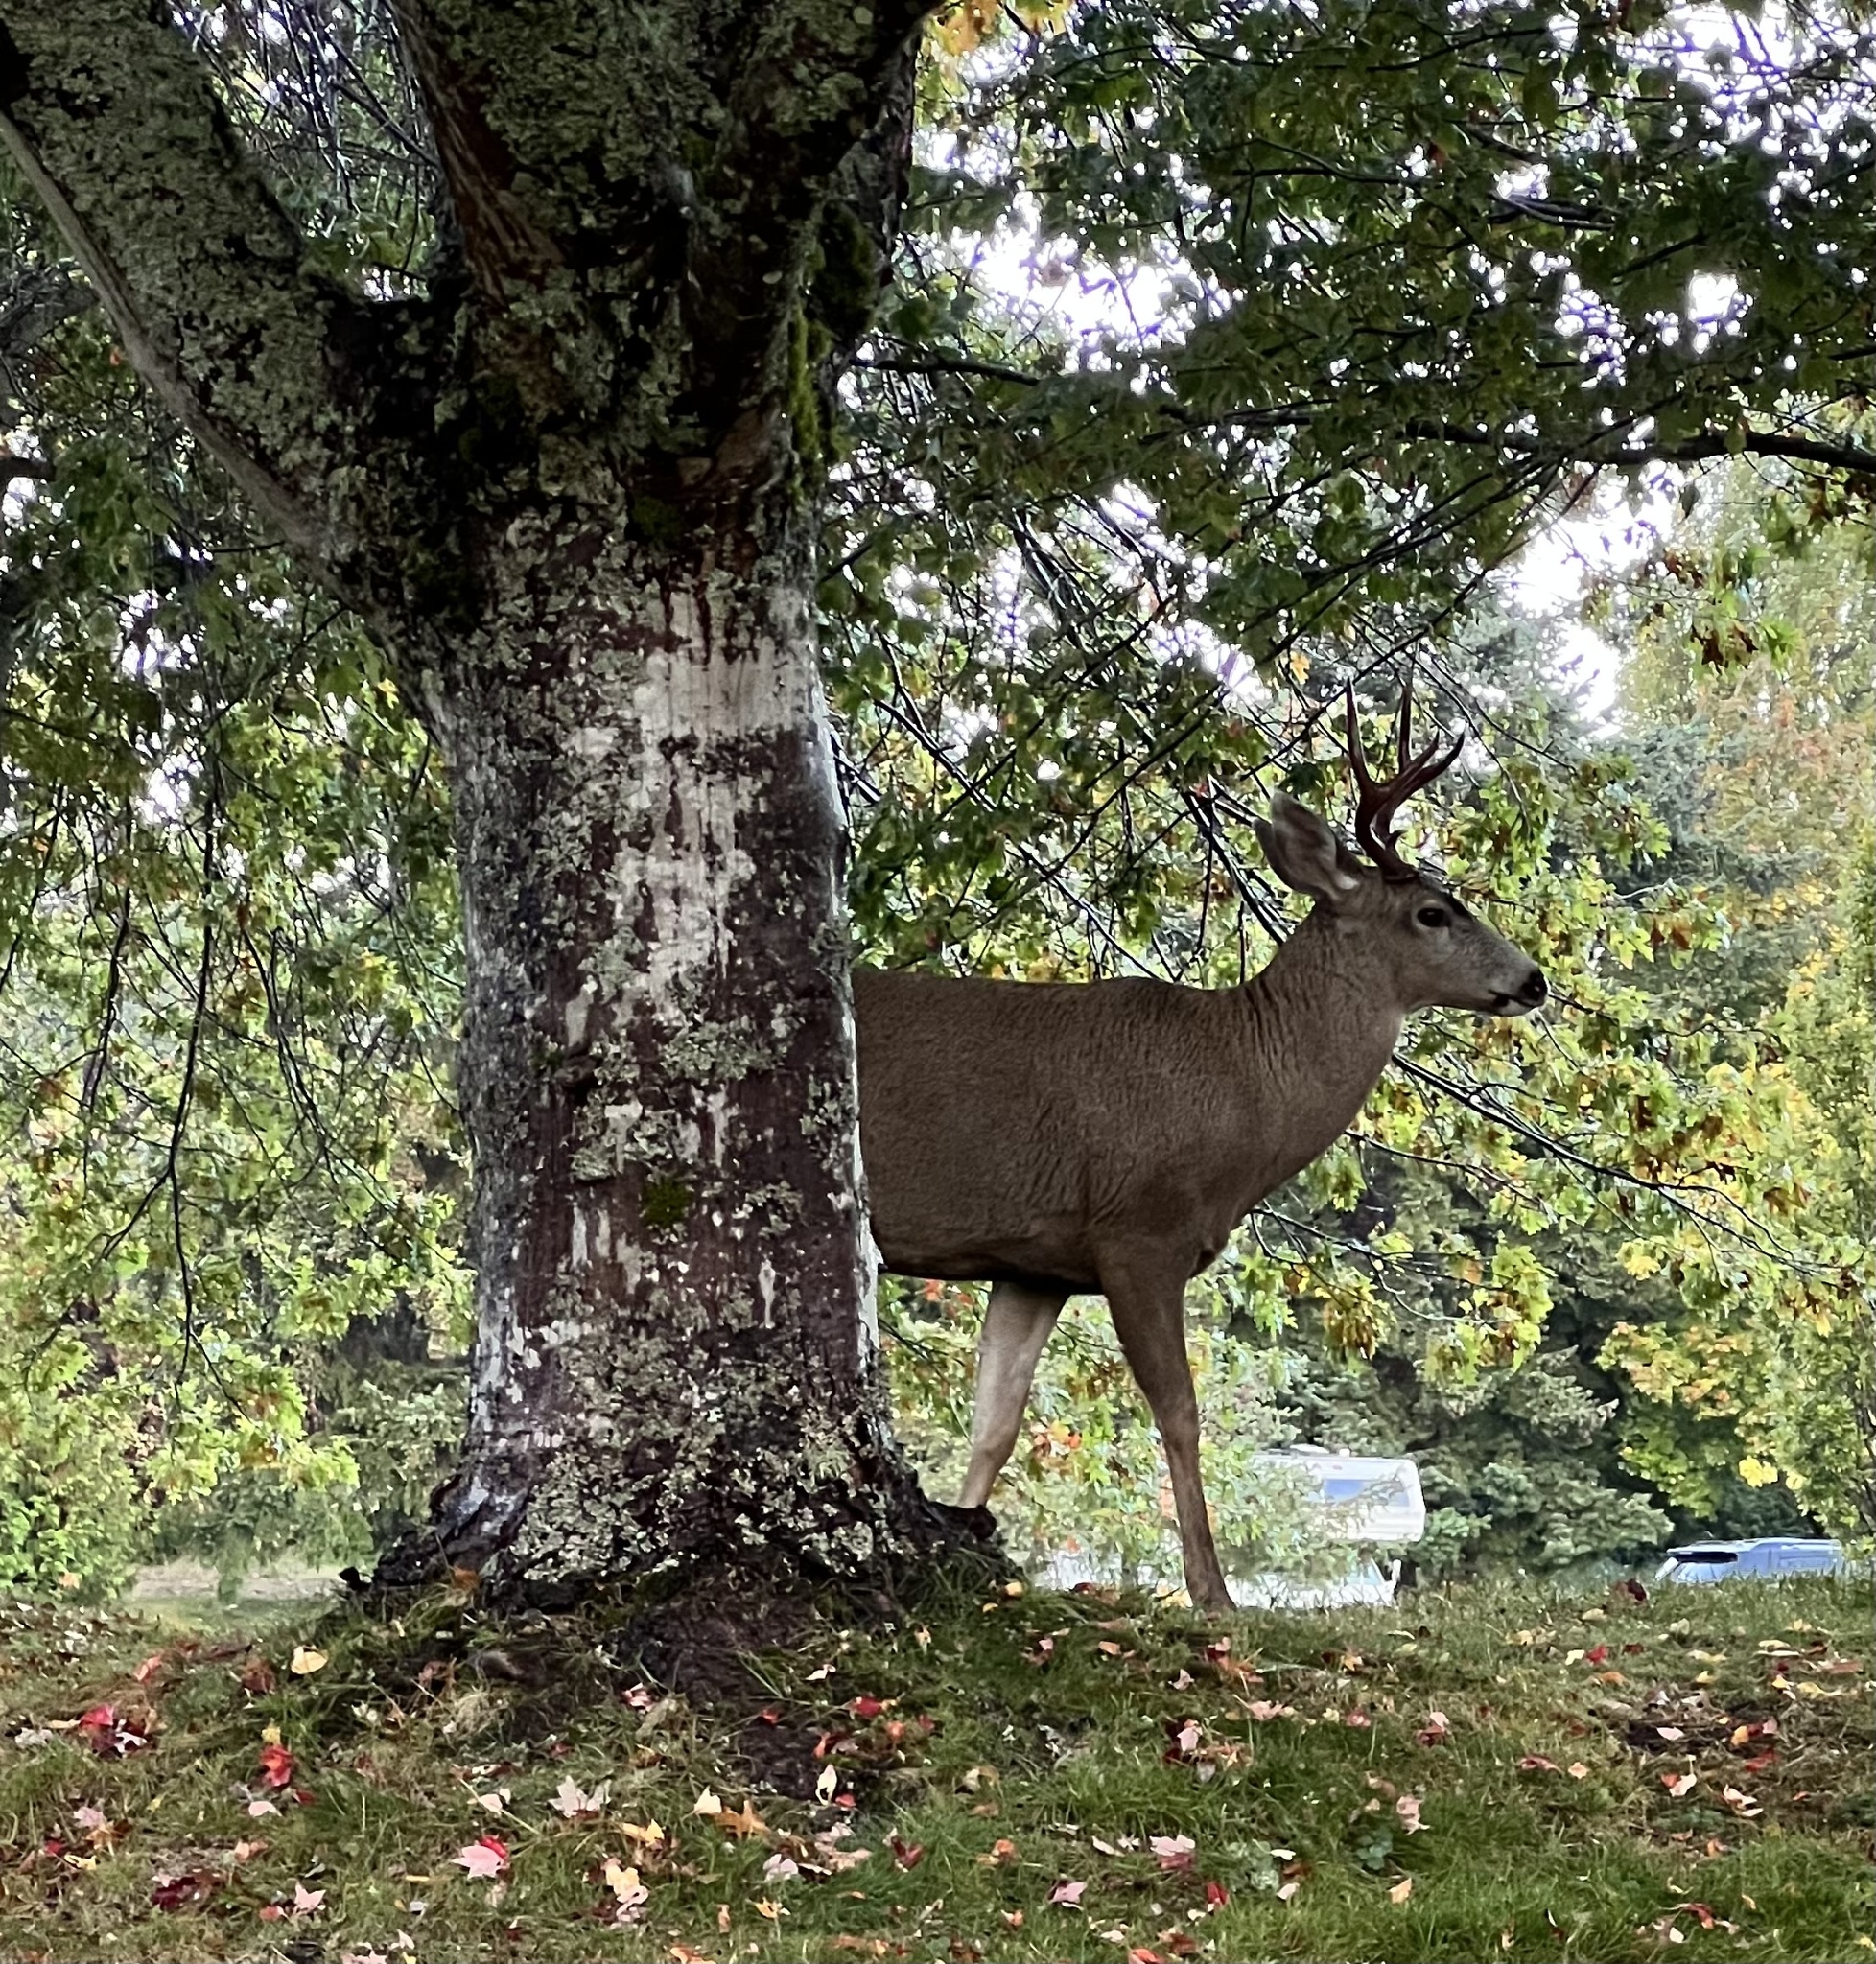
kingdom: Animalia
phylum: Chordata
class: Mammalia
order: Artiodactyla
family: Cervidae
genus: Odocoileus
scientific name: Odocoileus hemionus
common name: Mule deer
